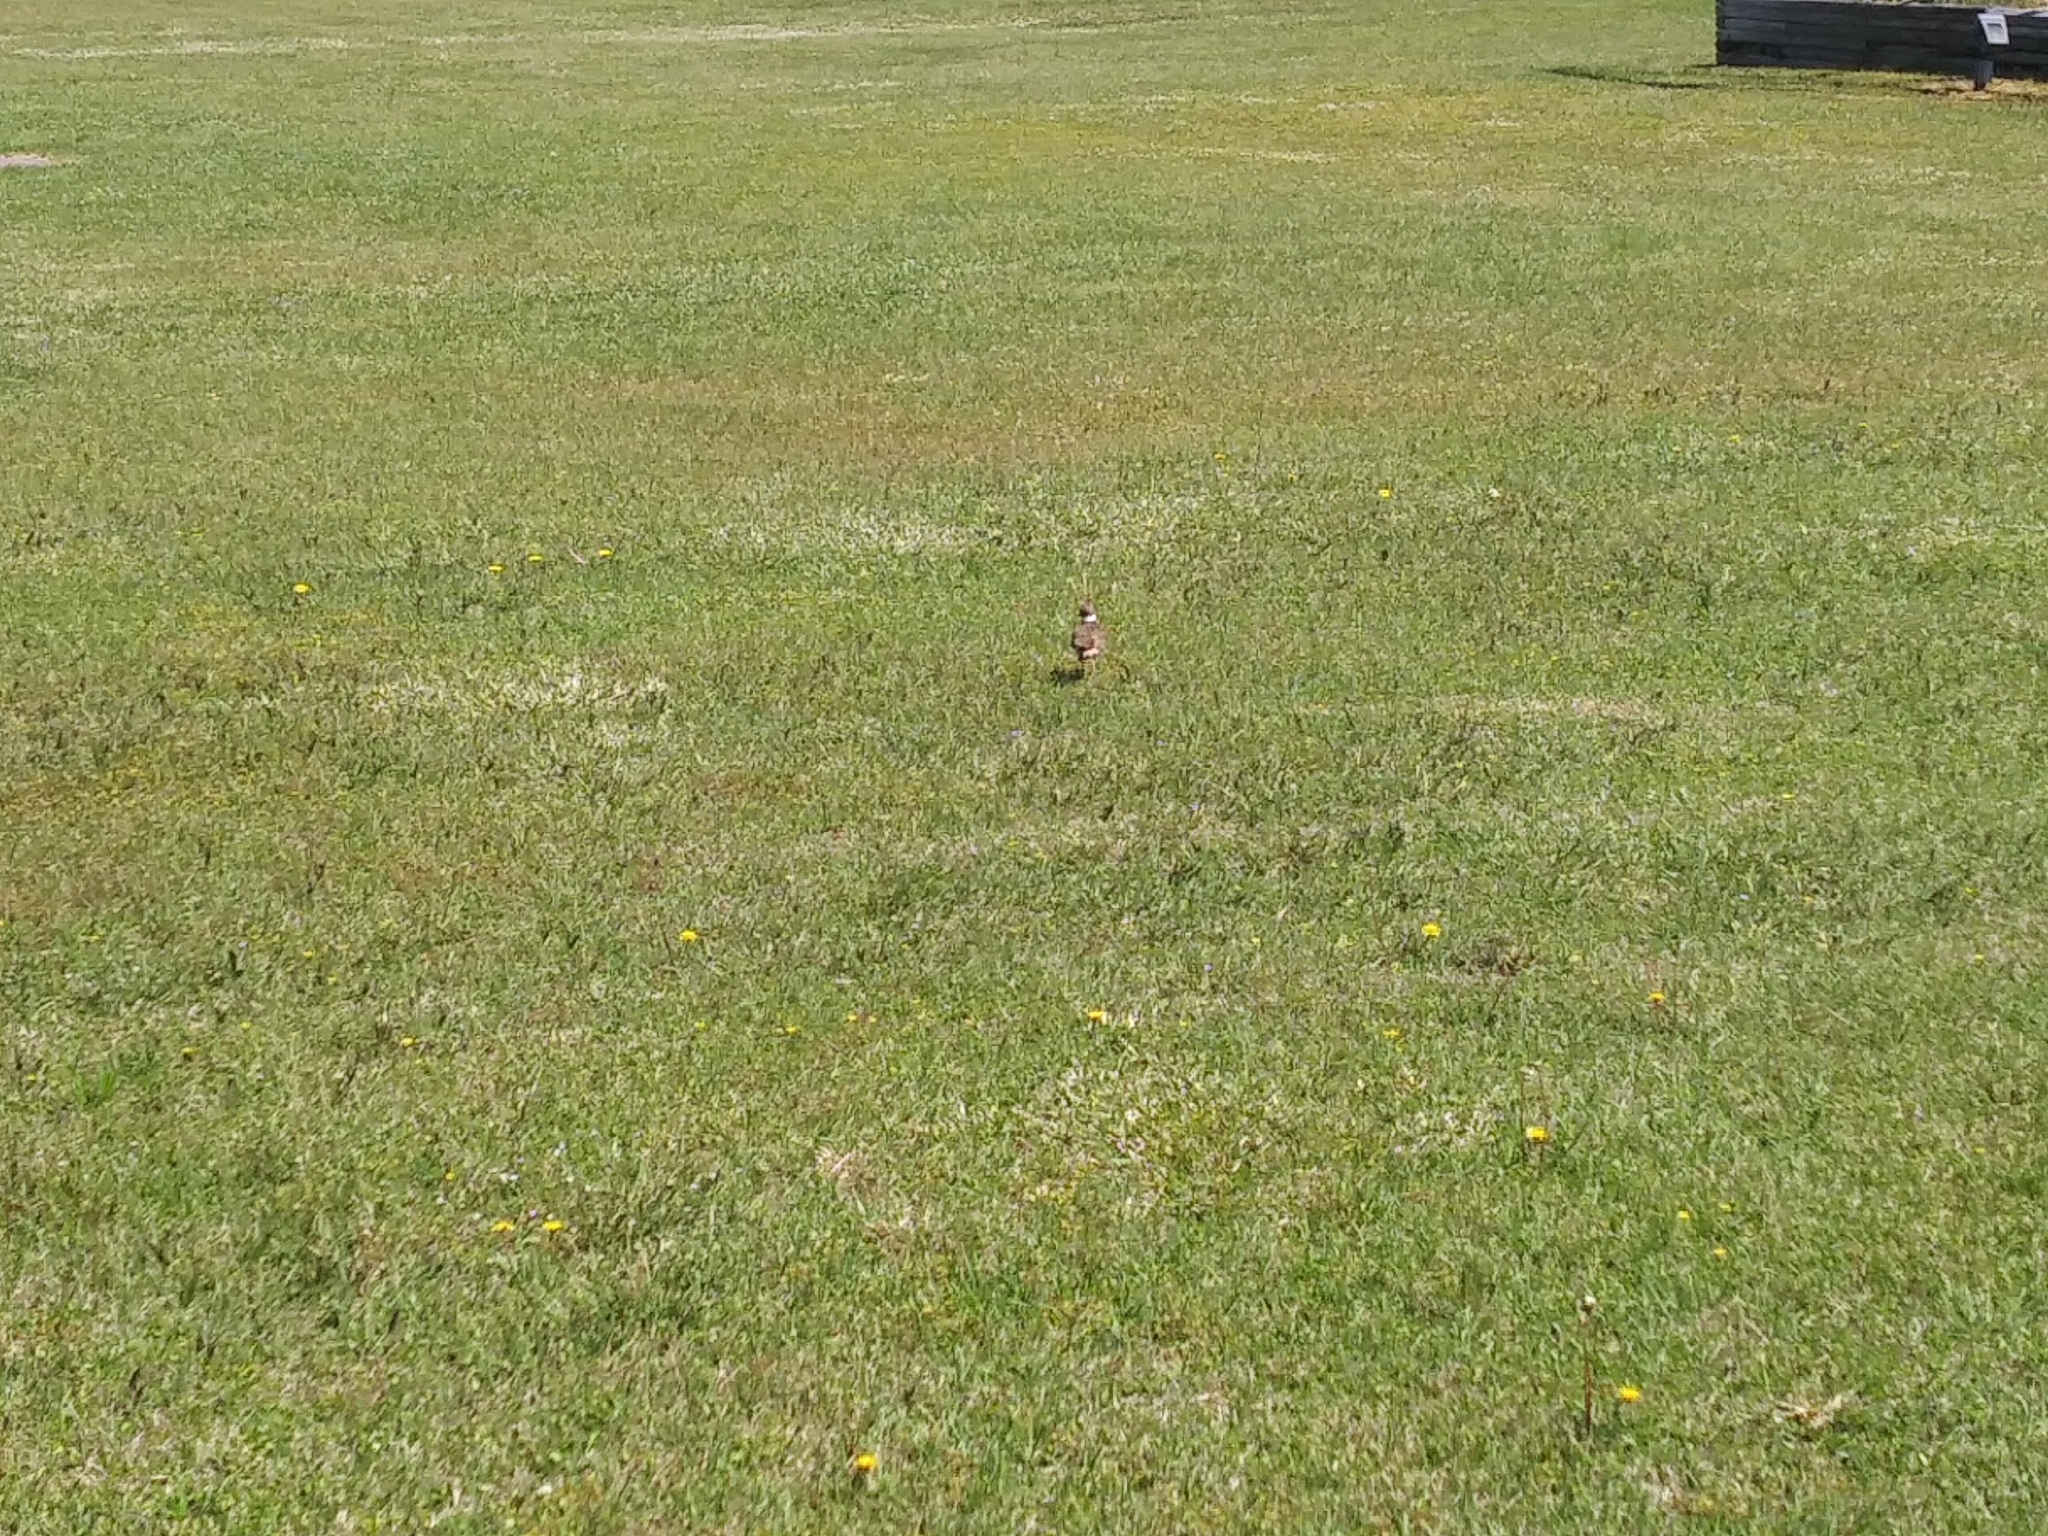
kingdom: Animalia
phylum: Chordata
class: Aves
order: Charadriiformes
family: Charadriidae
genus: Charadrius
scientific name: Charadrius vociferus
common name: Killdeer
